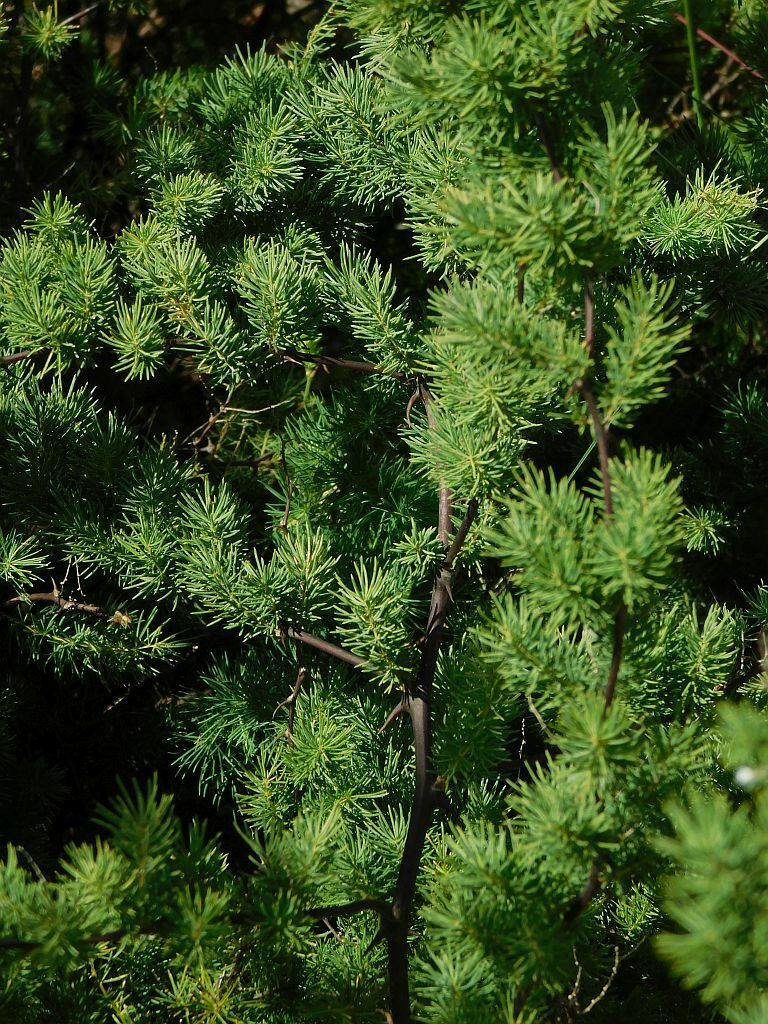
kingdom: Plantae
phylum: Tracheophyta
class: Liliopsida
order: Asparagales
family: Asparagaceae
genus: Asparagus
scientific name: Asparagus rubicundus
